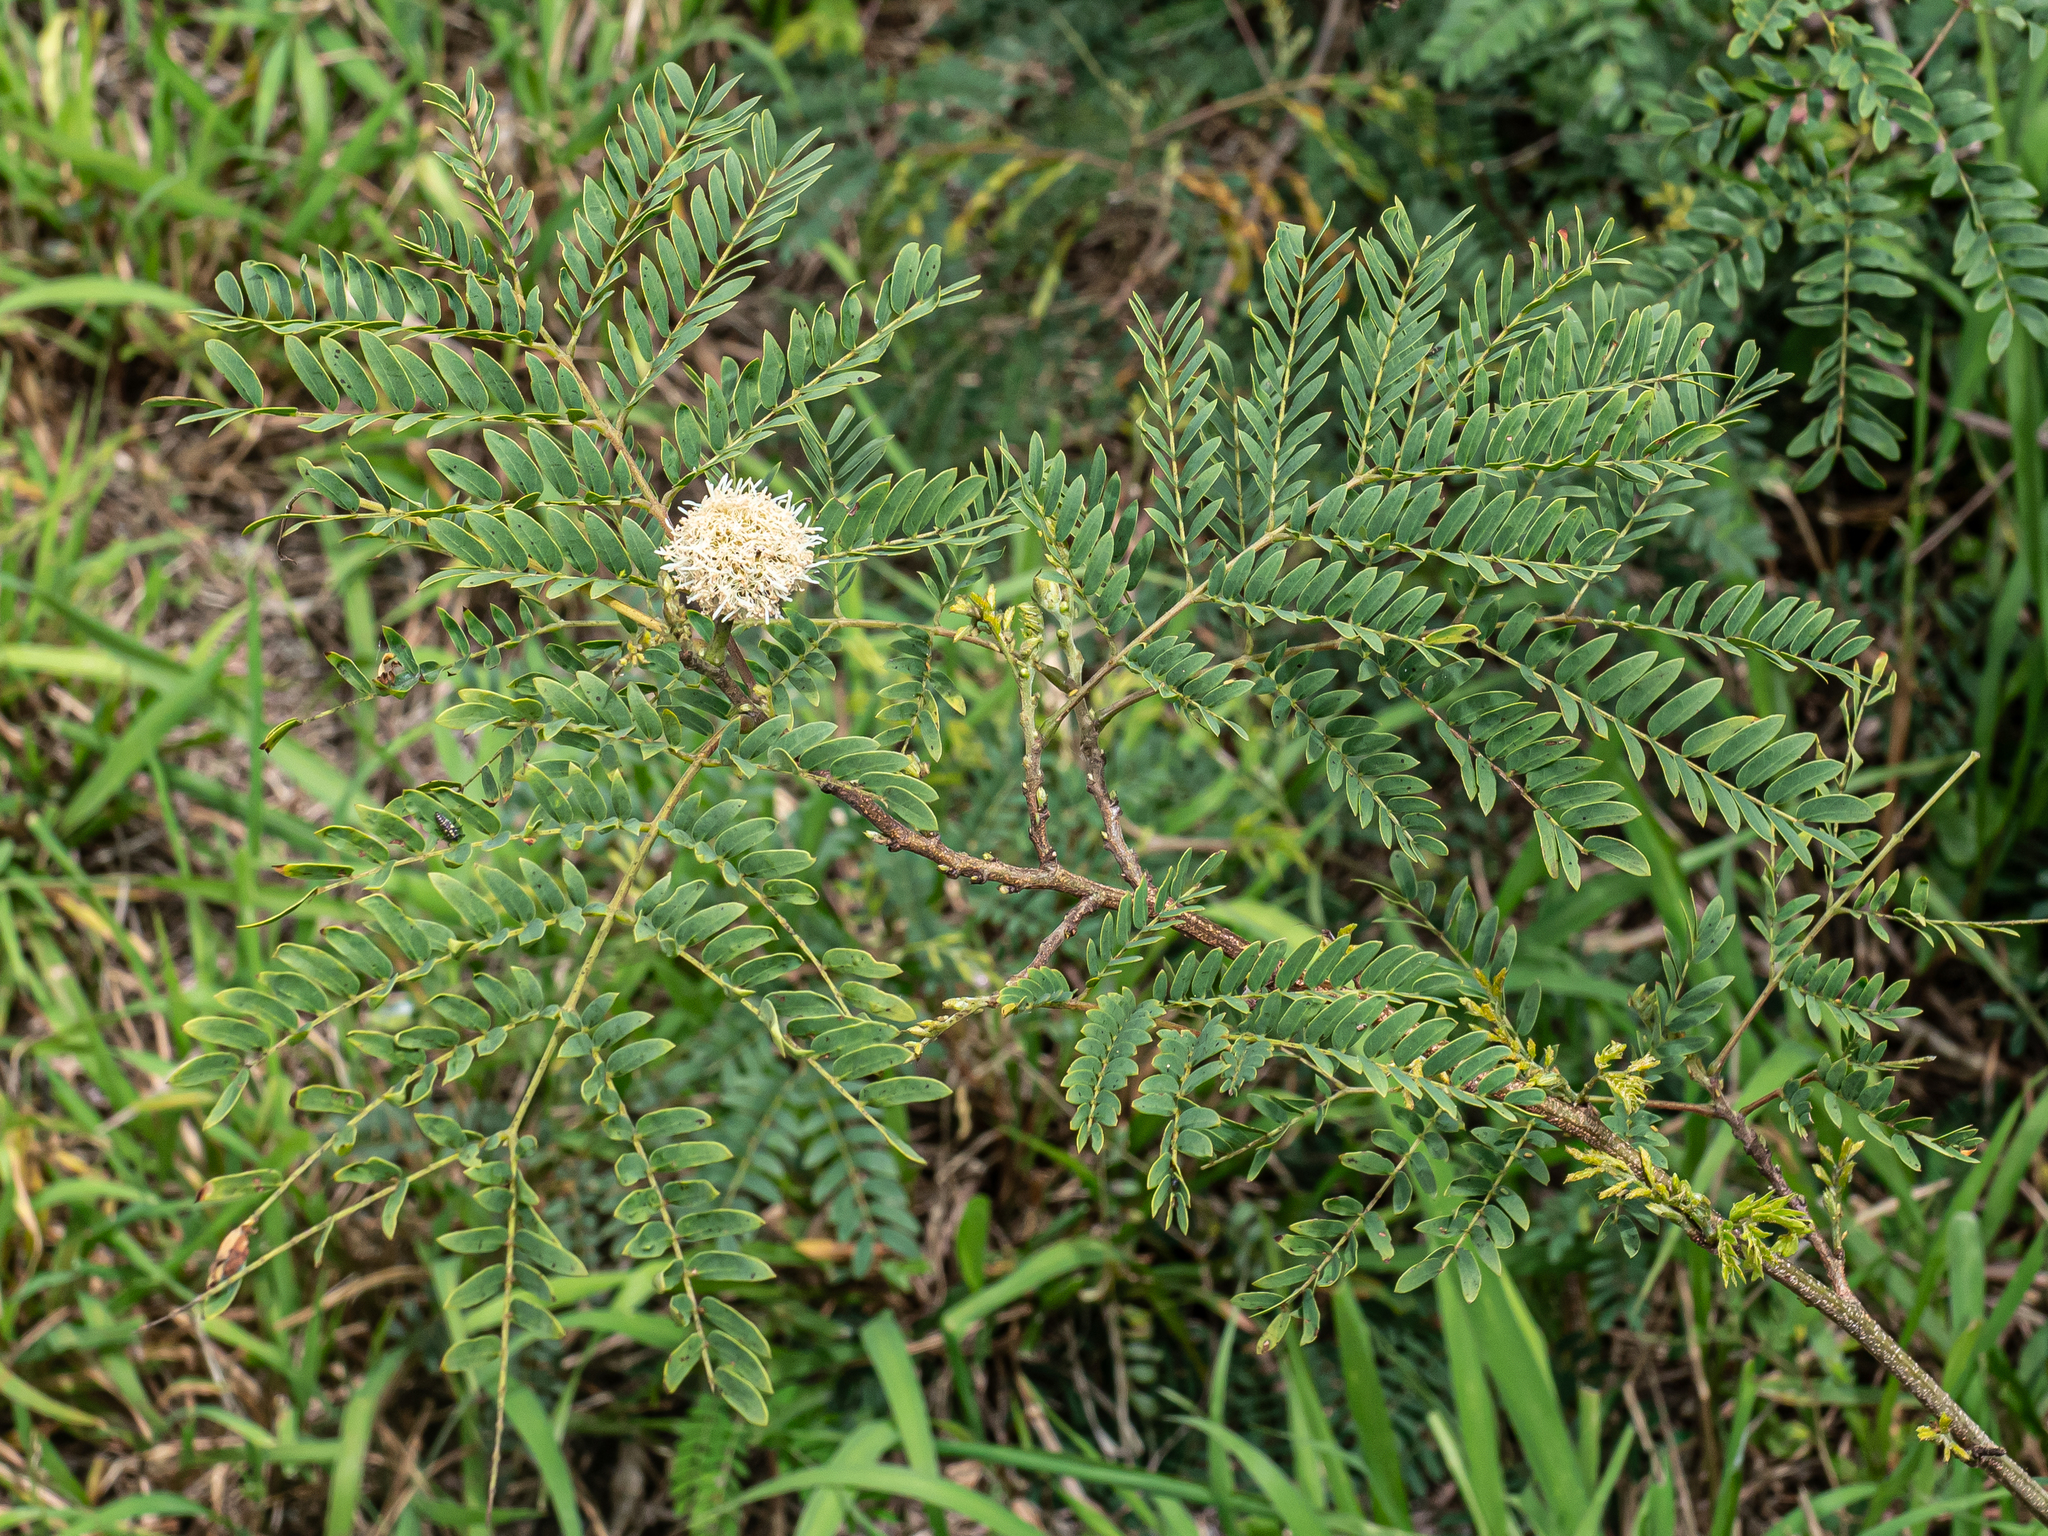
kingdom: Plantae
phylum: Tracheophyta
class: Magnoliopsida
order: Fabales
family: Fabaceae
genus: Leucaena
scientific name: Leucaena leucocephala
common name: White leadtree
